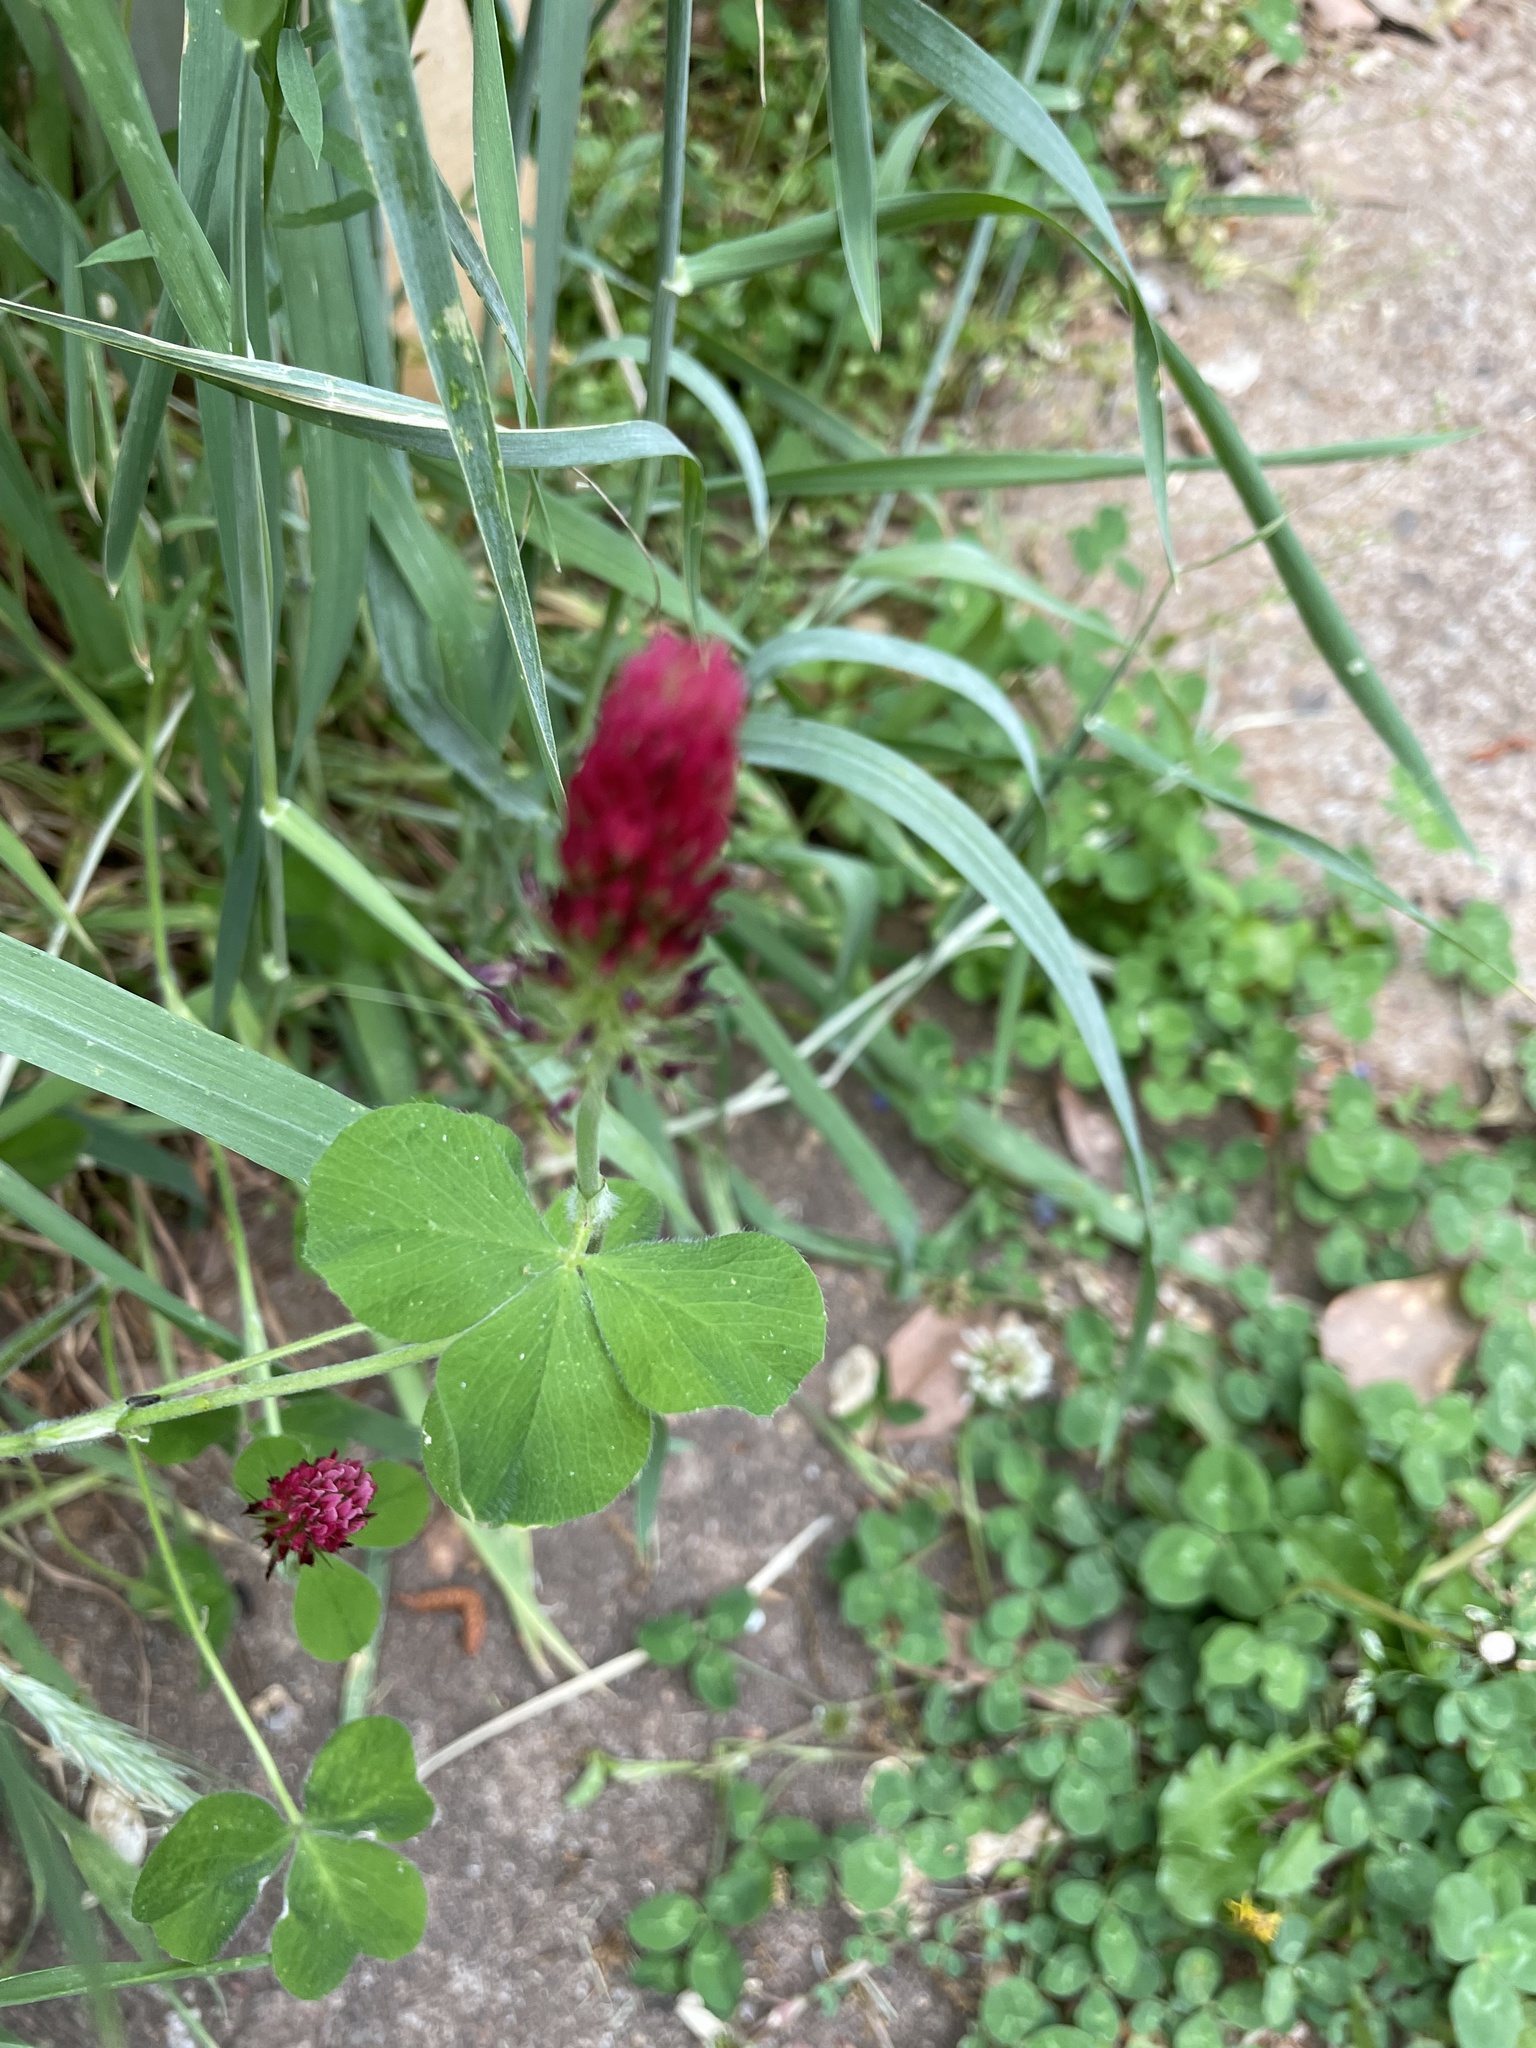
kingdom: Plantae
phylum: Tracheophyta
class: Magnoliopsida
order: Fabales
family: Fabaceae
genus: Trifolium
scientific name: Trifolium incarnatum
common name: Crimson clover
